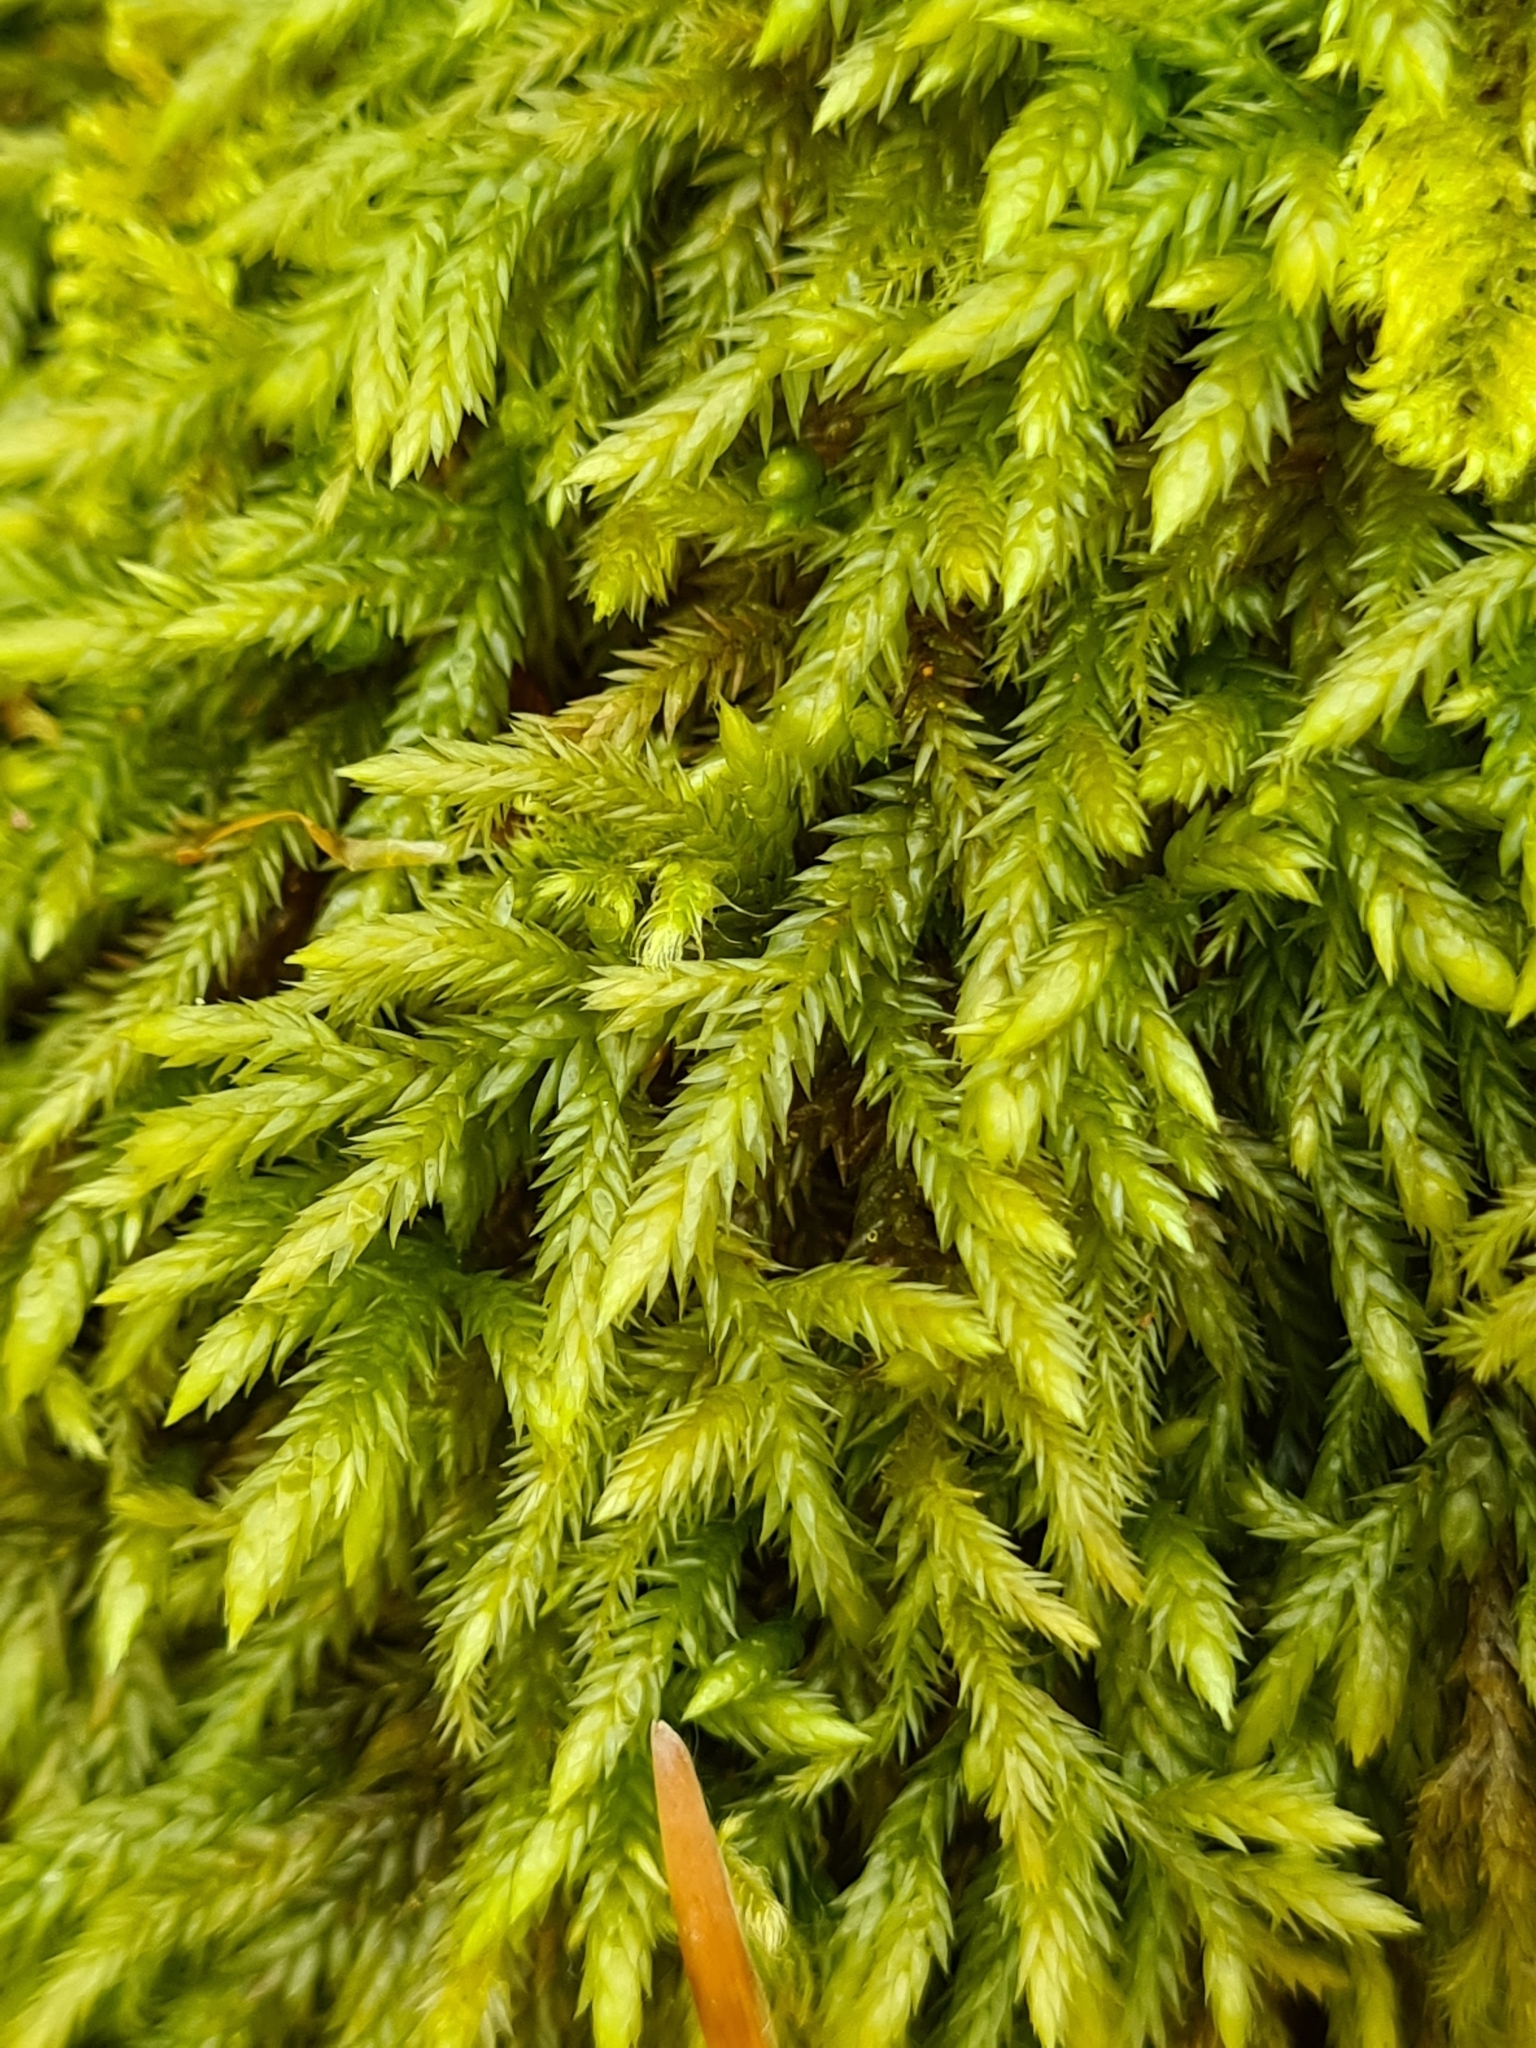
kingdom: Plantae
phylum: Bryophyta
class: Bryopsida
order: Hypnales
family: Lembophyllaceae
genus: Isothecium
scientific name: Isothecium alopecuroides
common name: Larger mouse-tail moss
